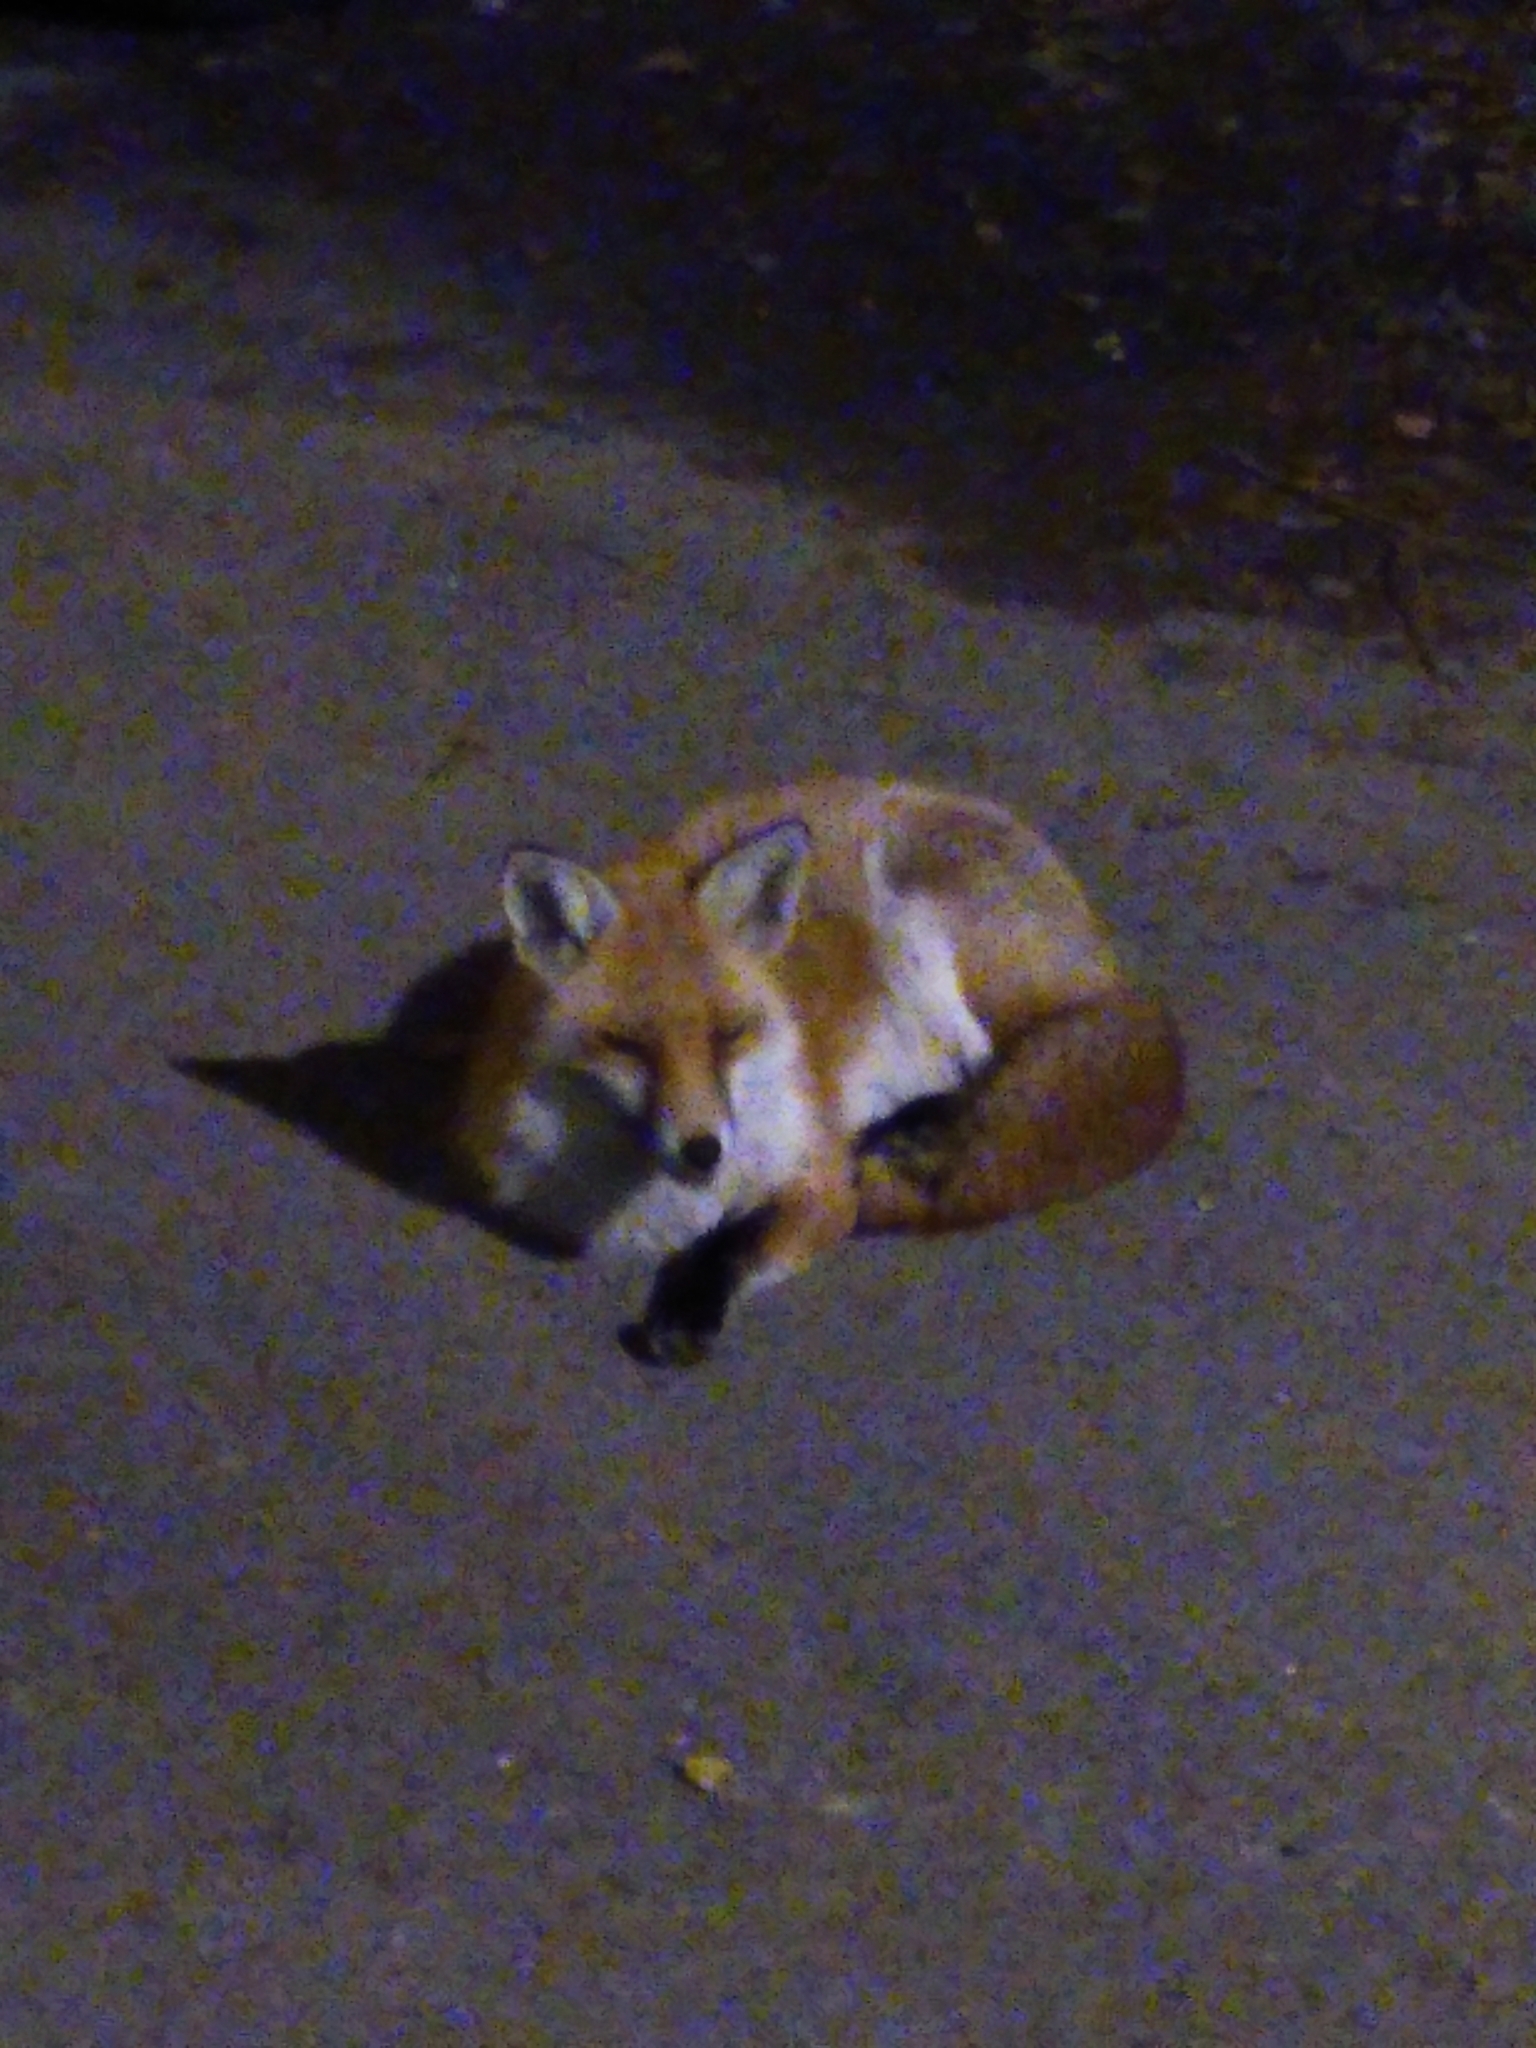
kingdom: Animalia
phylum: Chordata
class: Mammalia
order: Carnivora
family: Canidae
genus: Vulpes
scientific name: Vulpes vulpes
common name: Red fox
